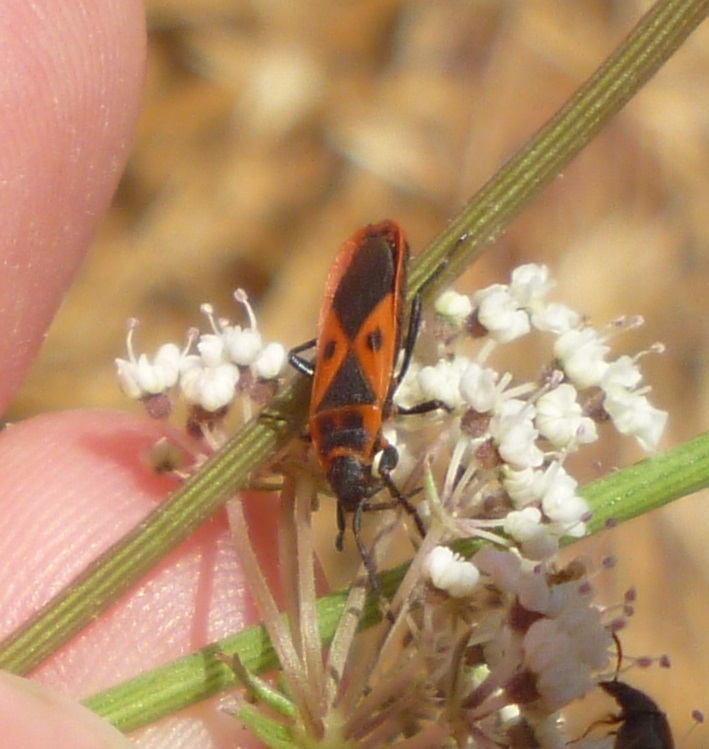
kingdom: Animalia
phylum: Arthropoda
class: Insecta
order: Hemiptera
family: Pyrrhocoridae
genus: Scantius
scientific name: Scantius aegyptius
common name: Red bug
